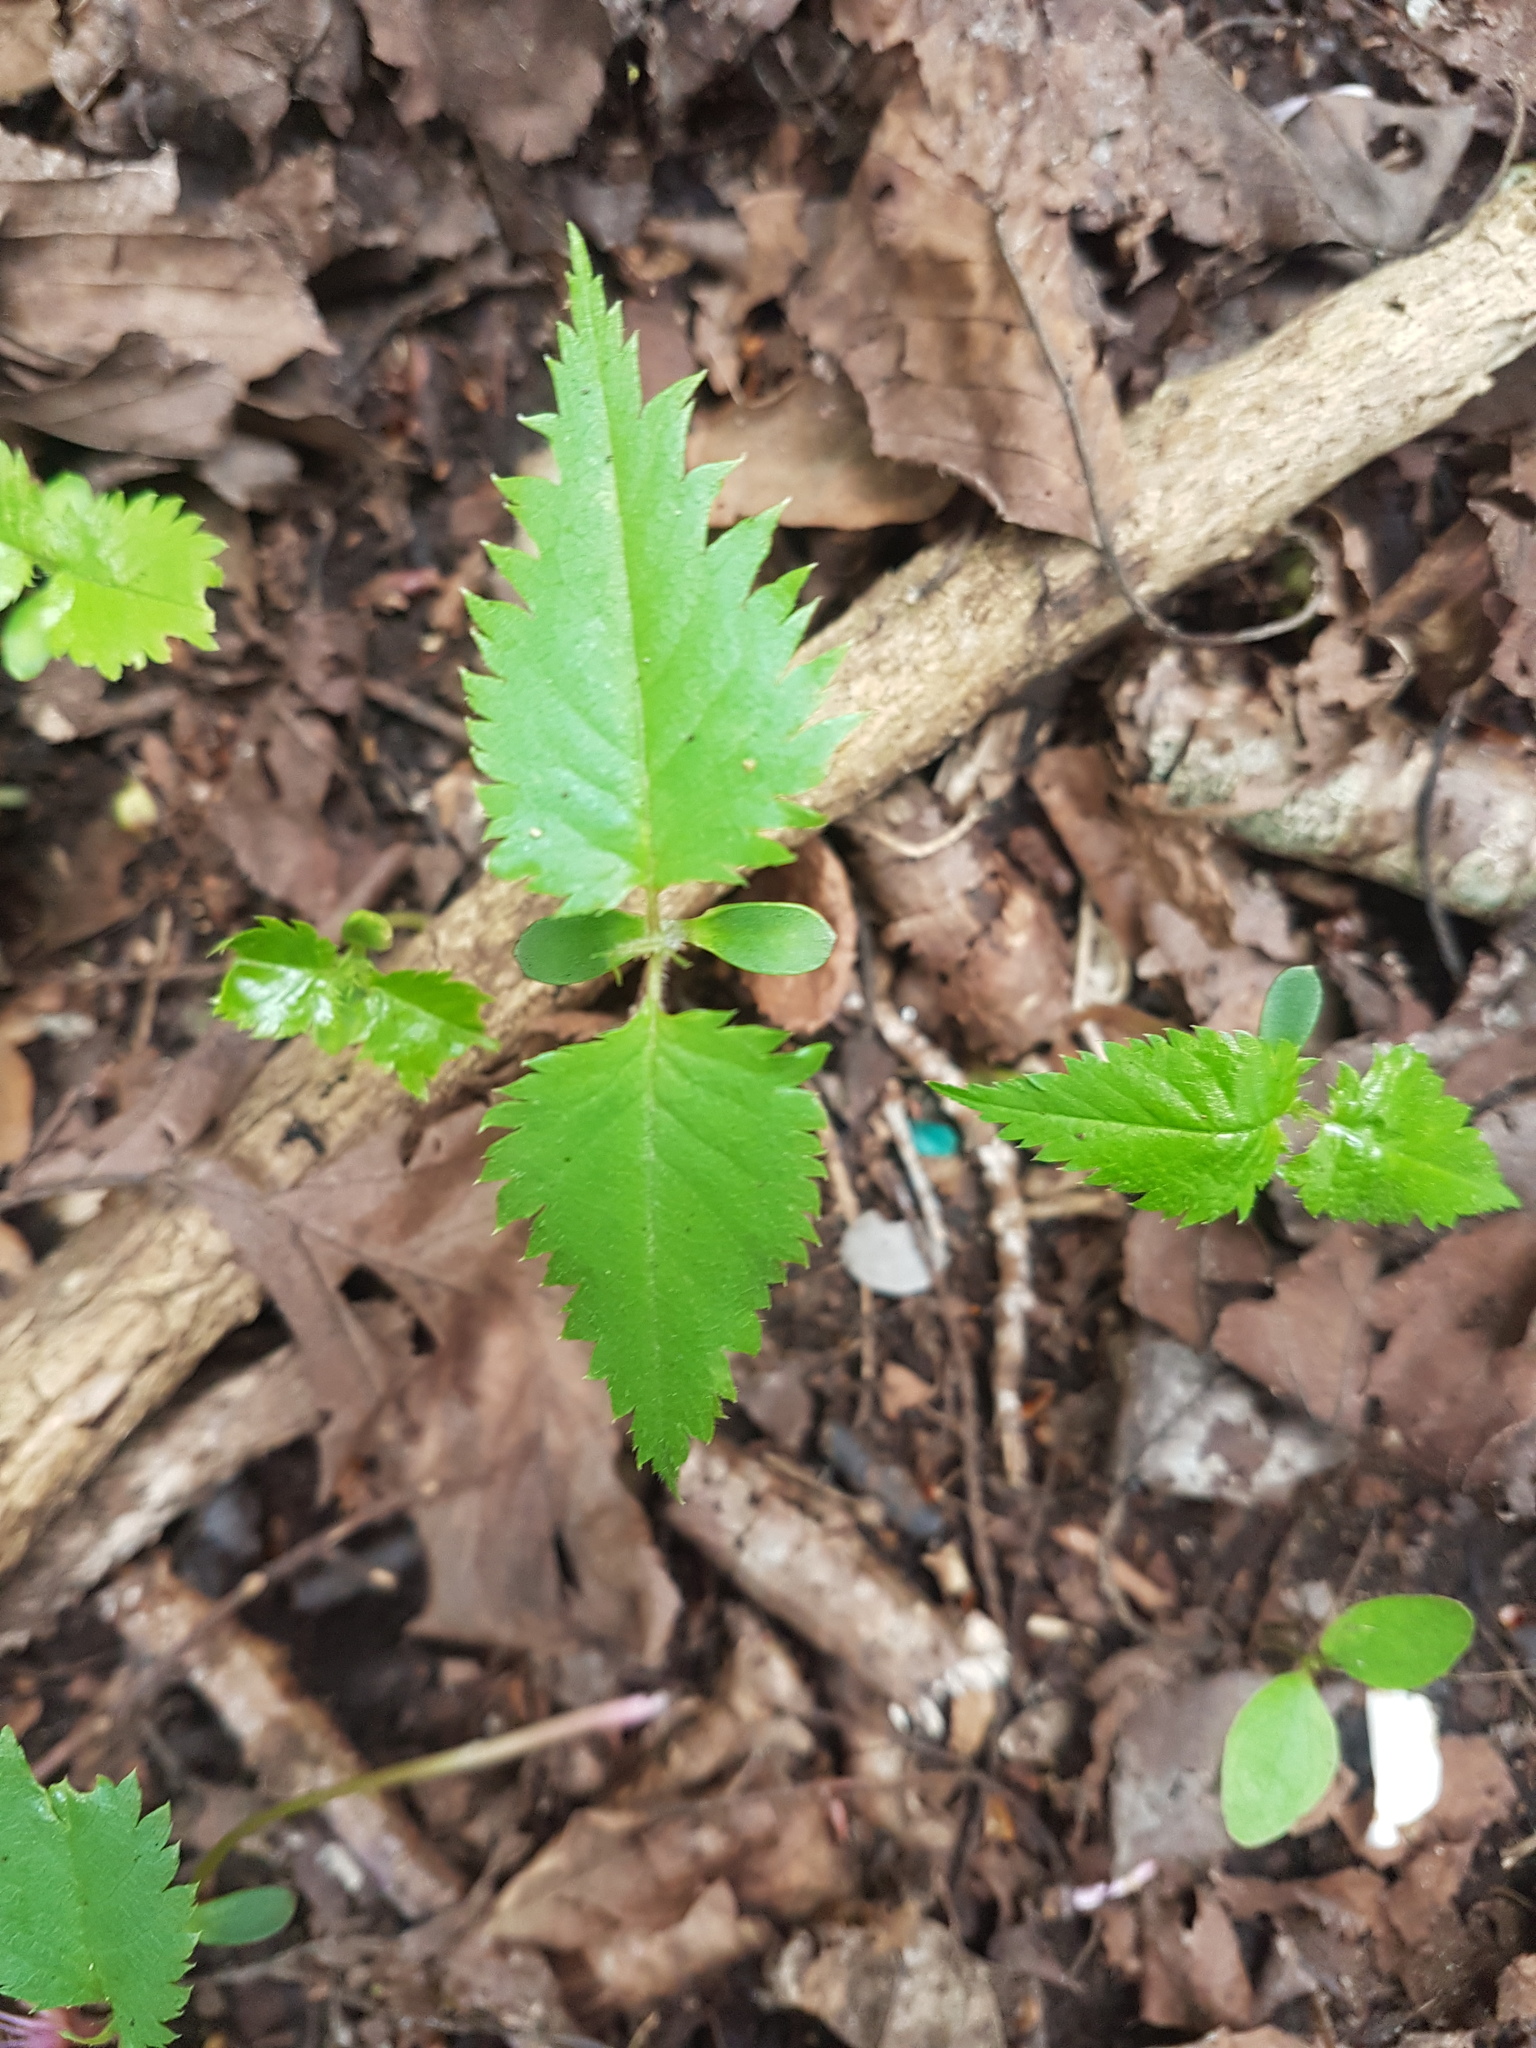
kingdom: Plantae
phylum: Tracheophyta
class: Magnoliopsida
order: Rosales
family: Rosaceae
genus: Prunus
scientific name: Prunus serrulata
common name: Japanese cherry
